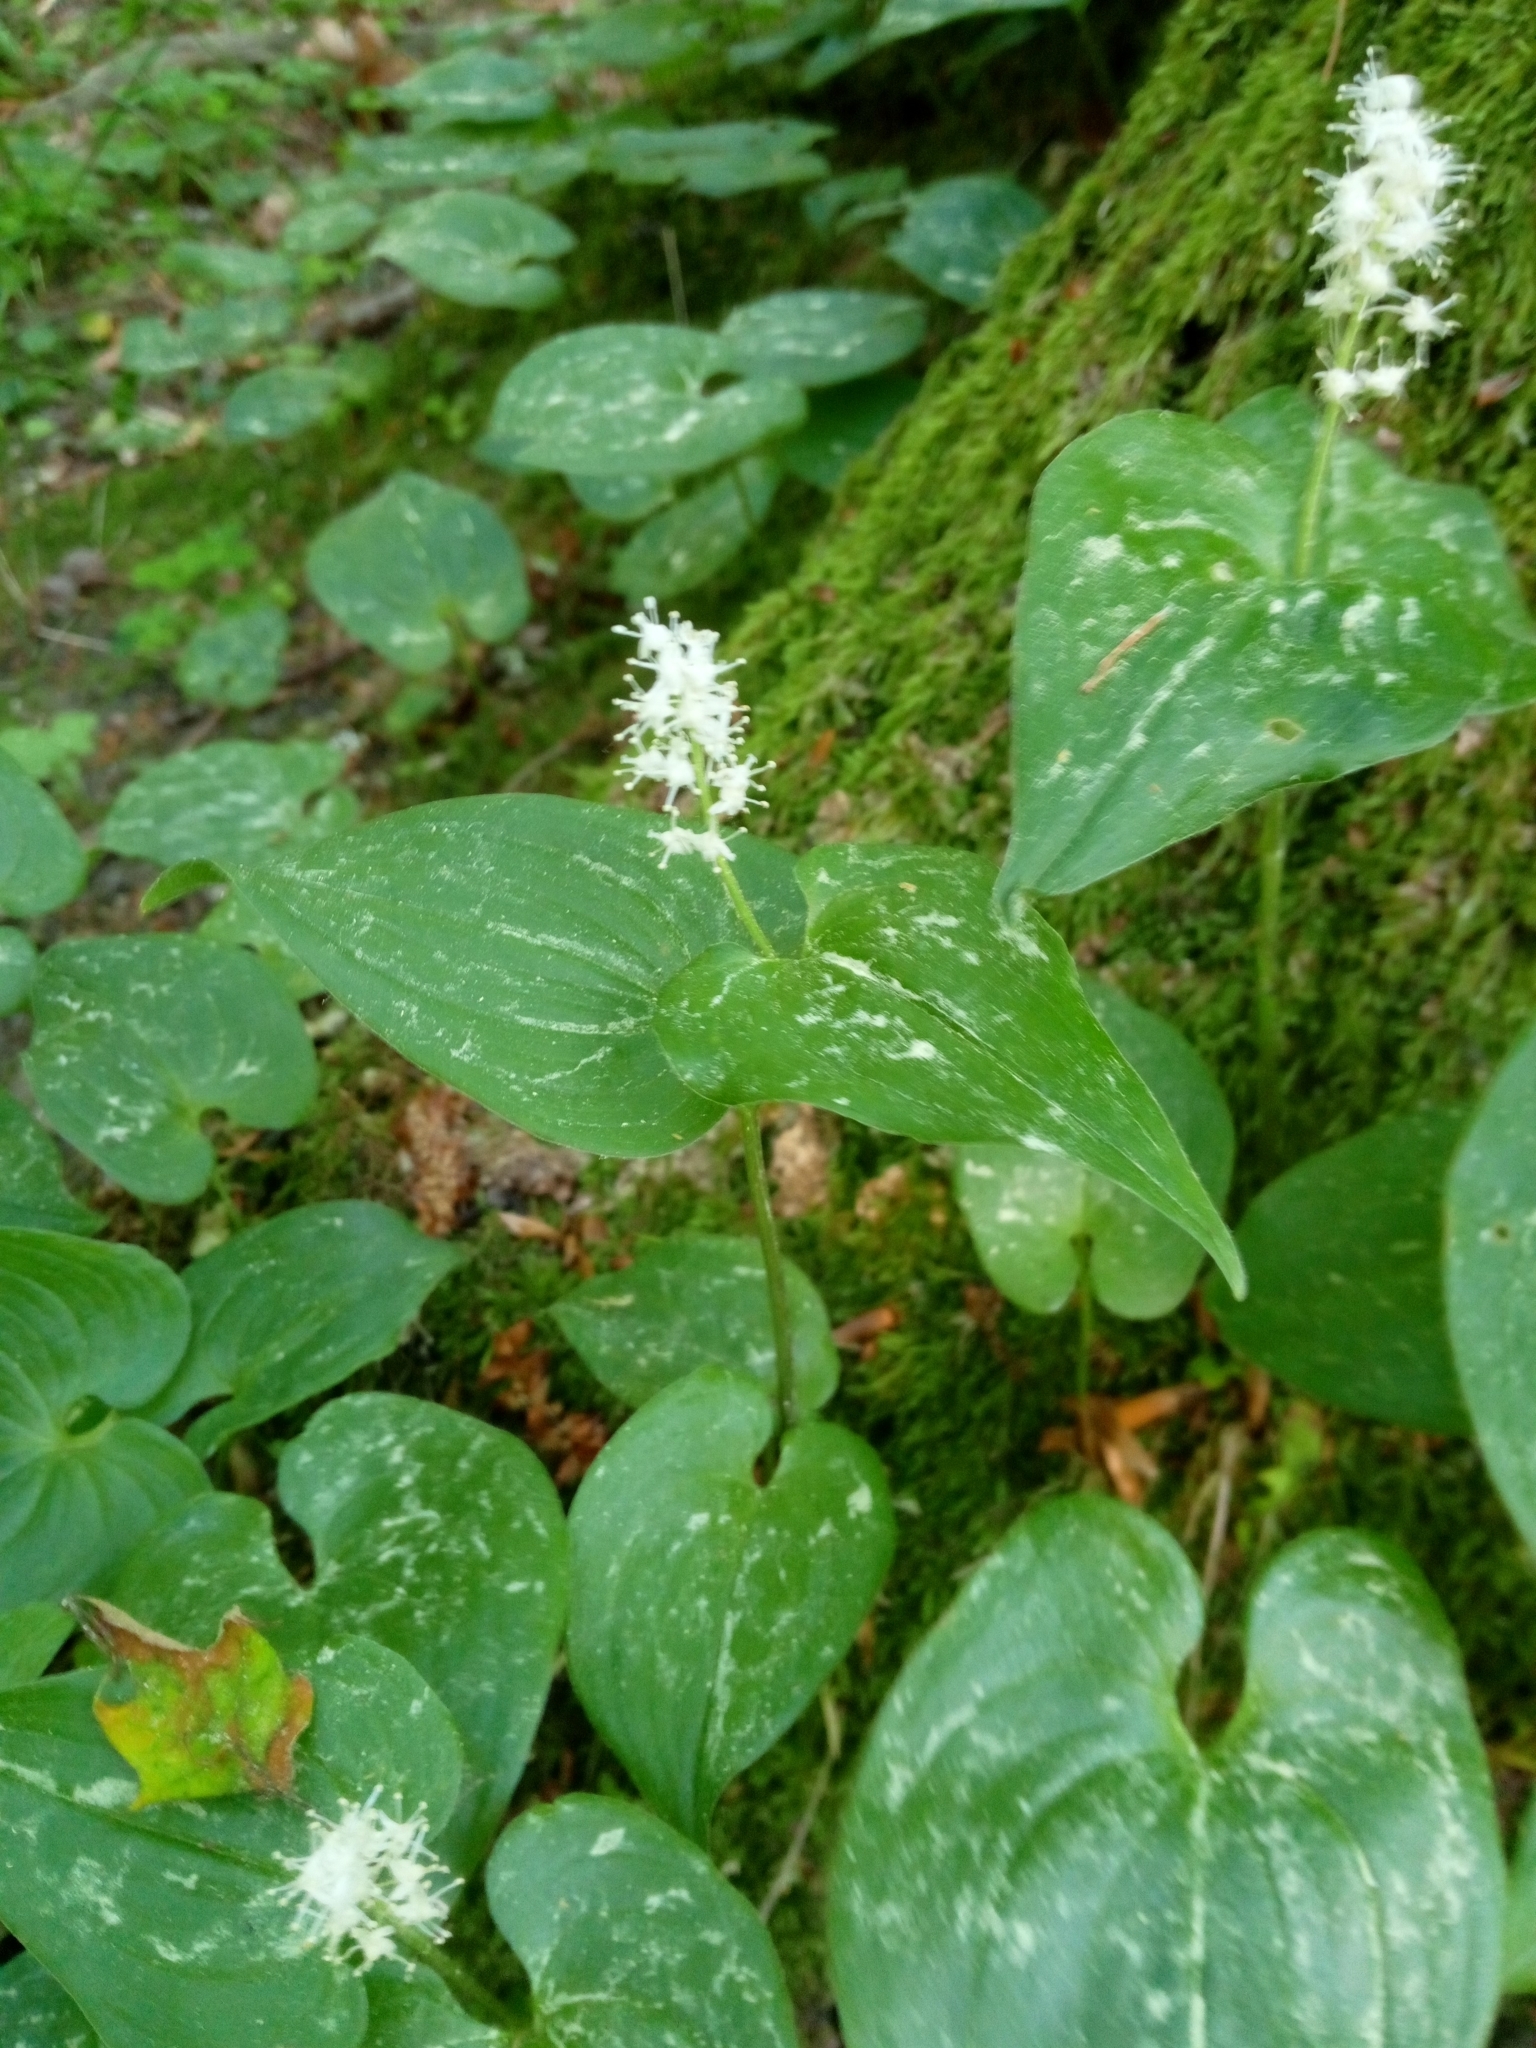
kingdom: Plantae
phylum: Tracheophyta
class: Liliopsida
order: Asparagales
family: Asparagaceae
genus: Maianthemum
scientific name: Maianthemum bifolium
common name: May lily
